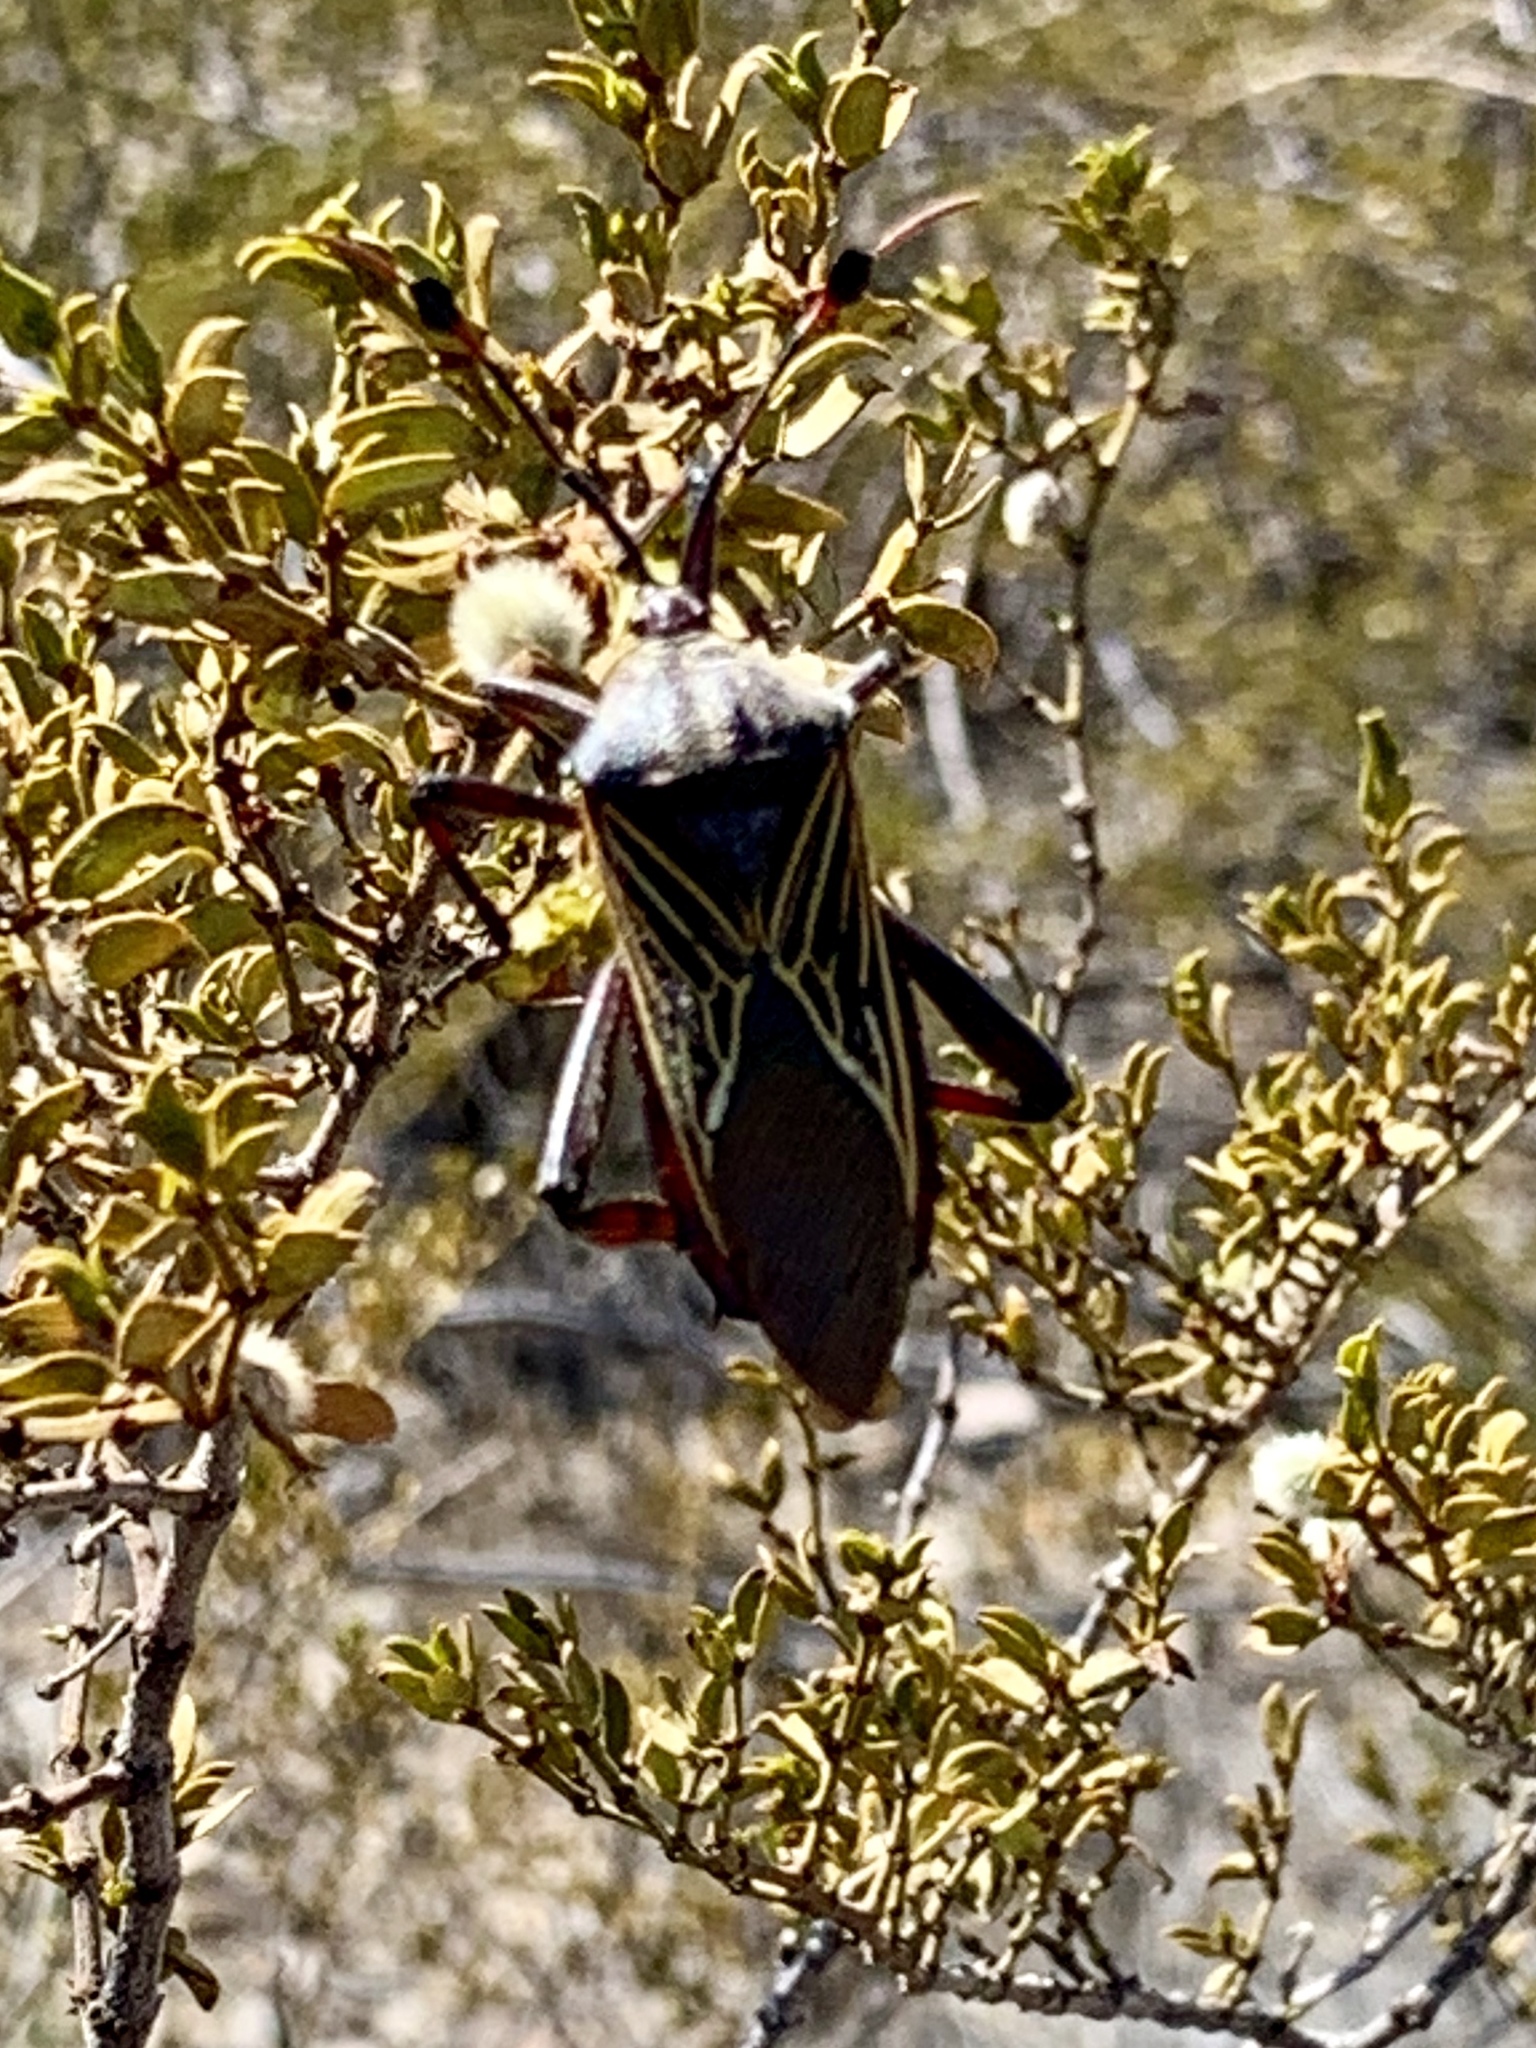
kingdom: Animalia
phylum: Arthropoda
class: Insecta
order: Hemiptera
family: Coreidae
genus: Thasus
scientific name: Thasus neocalifornicus
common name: Giant mesquite bug
